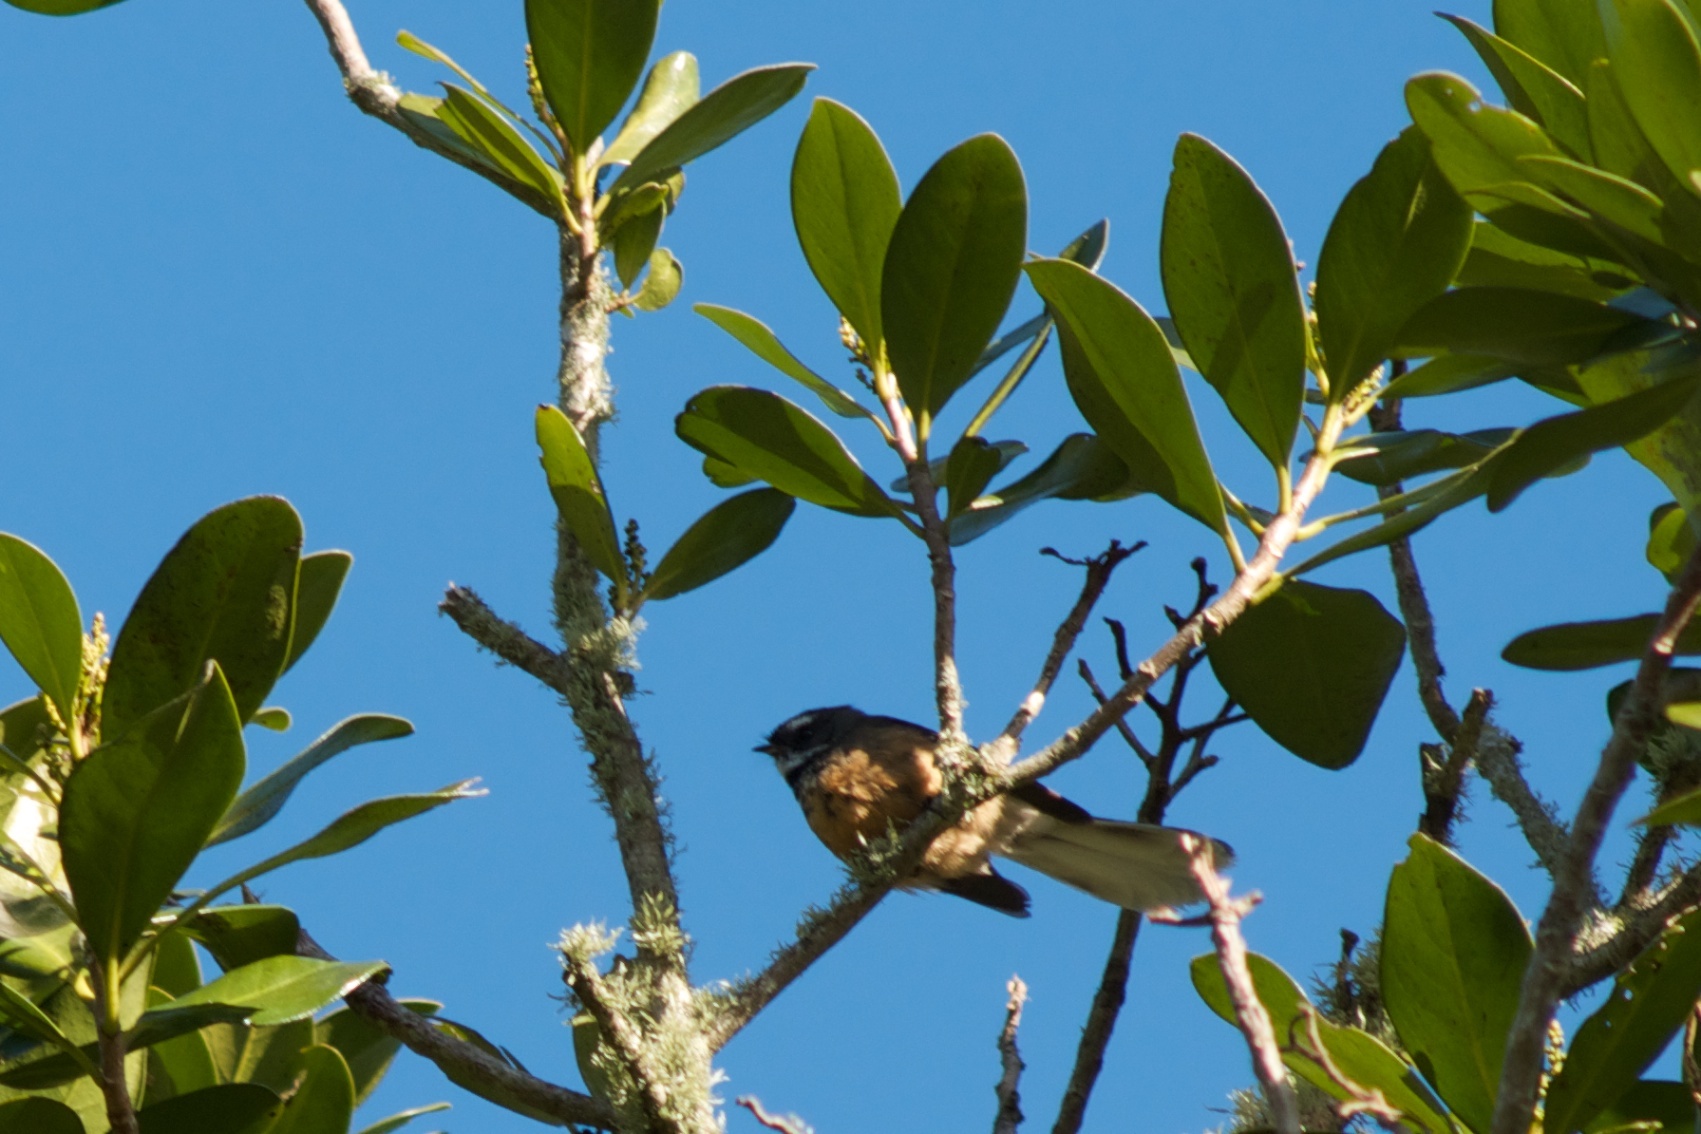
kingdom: Animalia
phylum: Chordata
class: Aves
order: Passeriformes
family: Rhipiduridae
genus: Rhipidura
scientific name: Rhipidura fuliginosa
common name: New zealand fantail
